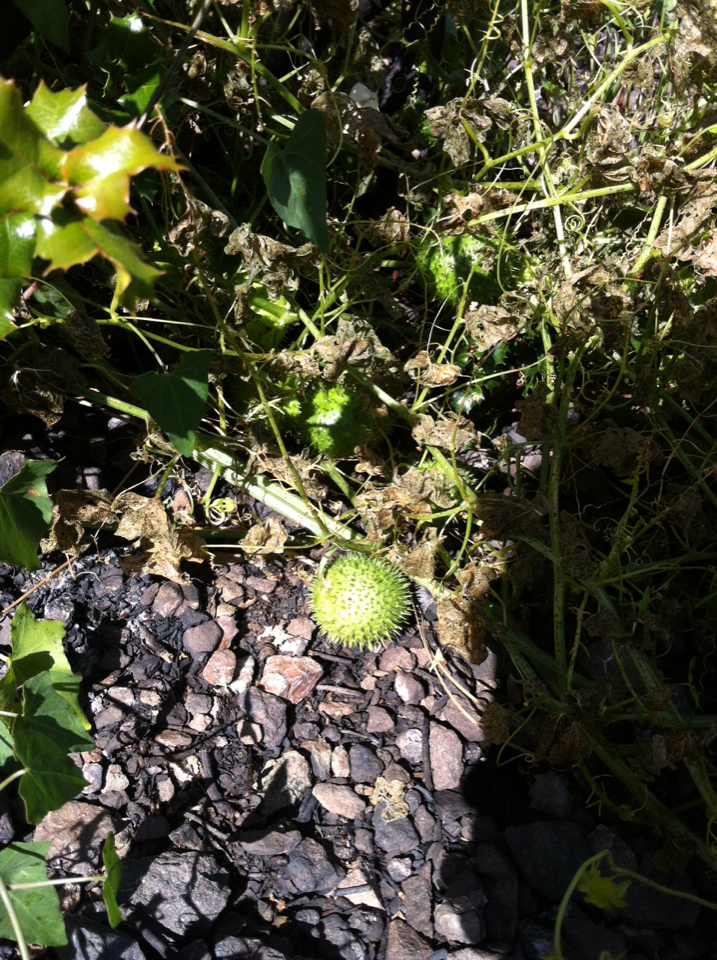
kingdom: Plantae
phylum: Tracheophyta
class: Magnoliopsida
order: Cucurbitales
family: Cucurbitaceae
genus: Marah
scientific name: Marah fabacea
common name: California manroot
